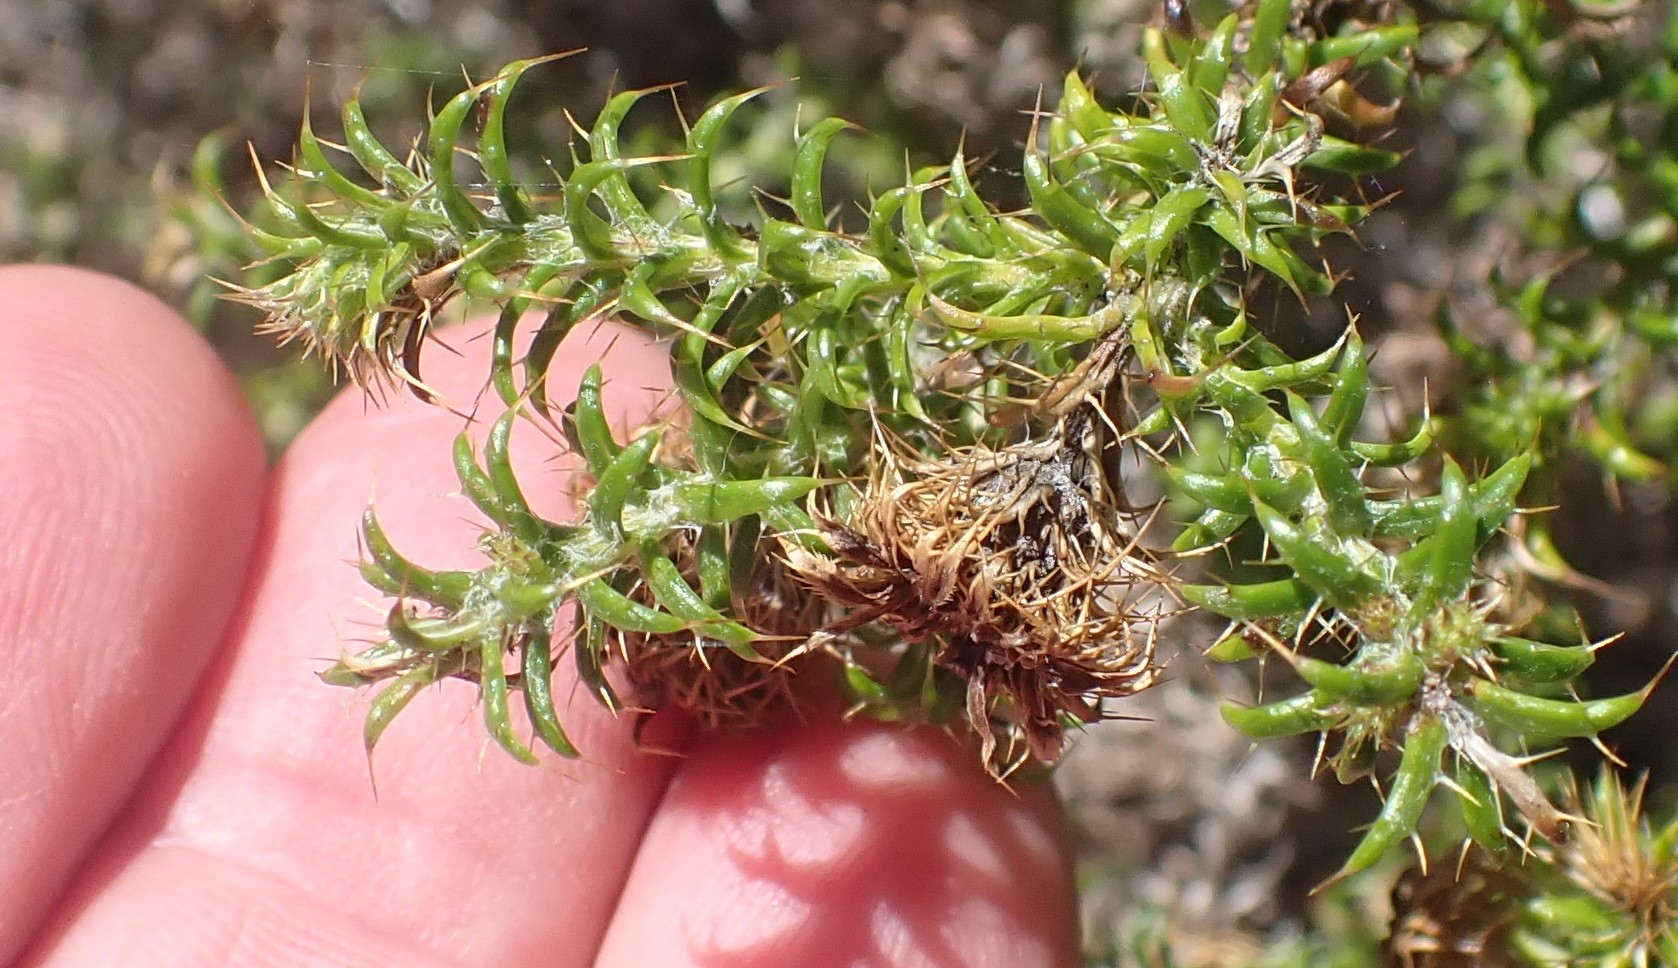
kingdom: Plantae
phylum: Tracheophyta
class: Magnoliopsida
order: Asterales
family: Asteraceae
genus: Cullumia
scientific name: Cullumia decurrens
